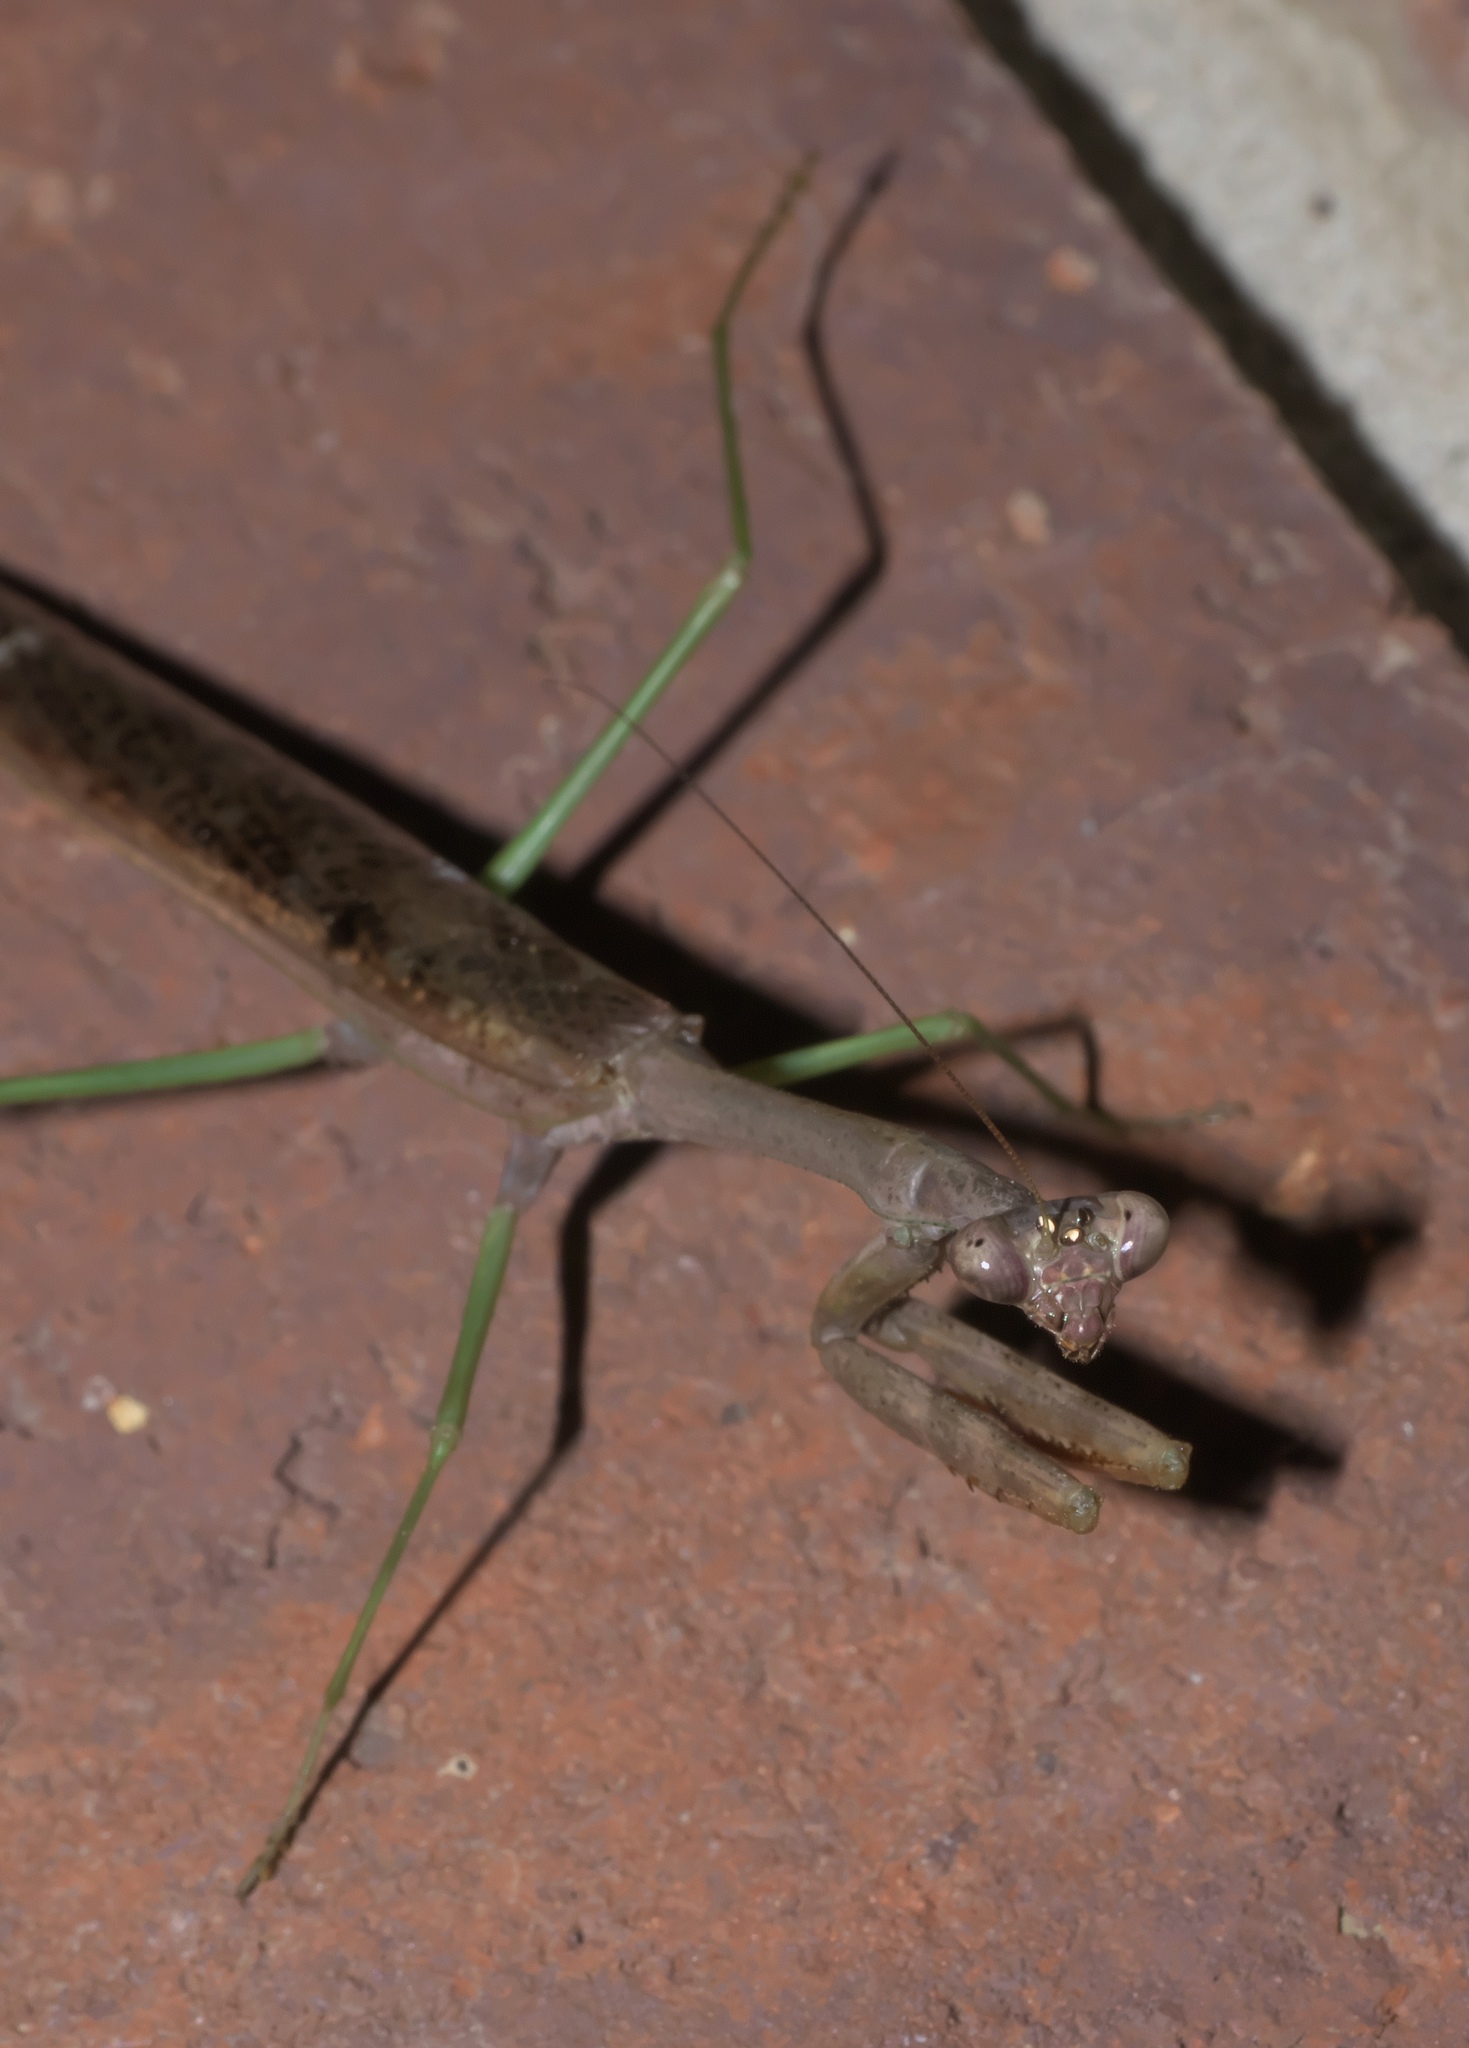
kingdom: Animalia
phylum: Arthropoda
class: Insecta
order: Mantodea
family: Mantidae
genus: Stagmomantis
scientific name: Stagmomantis carolina
